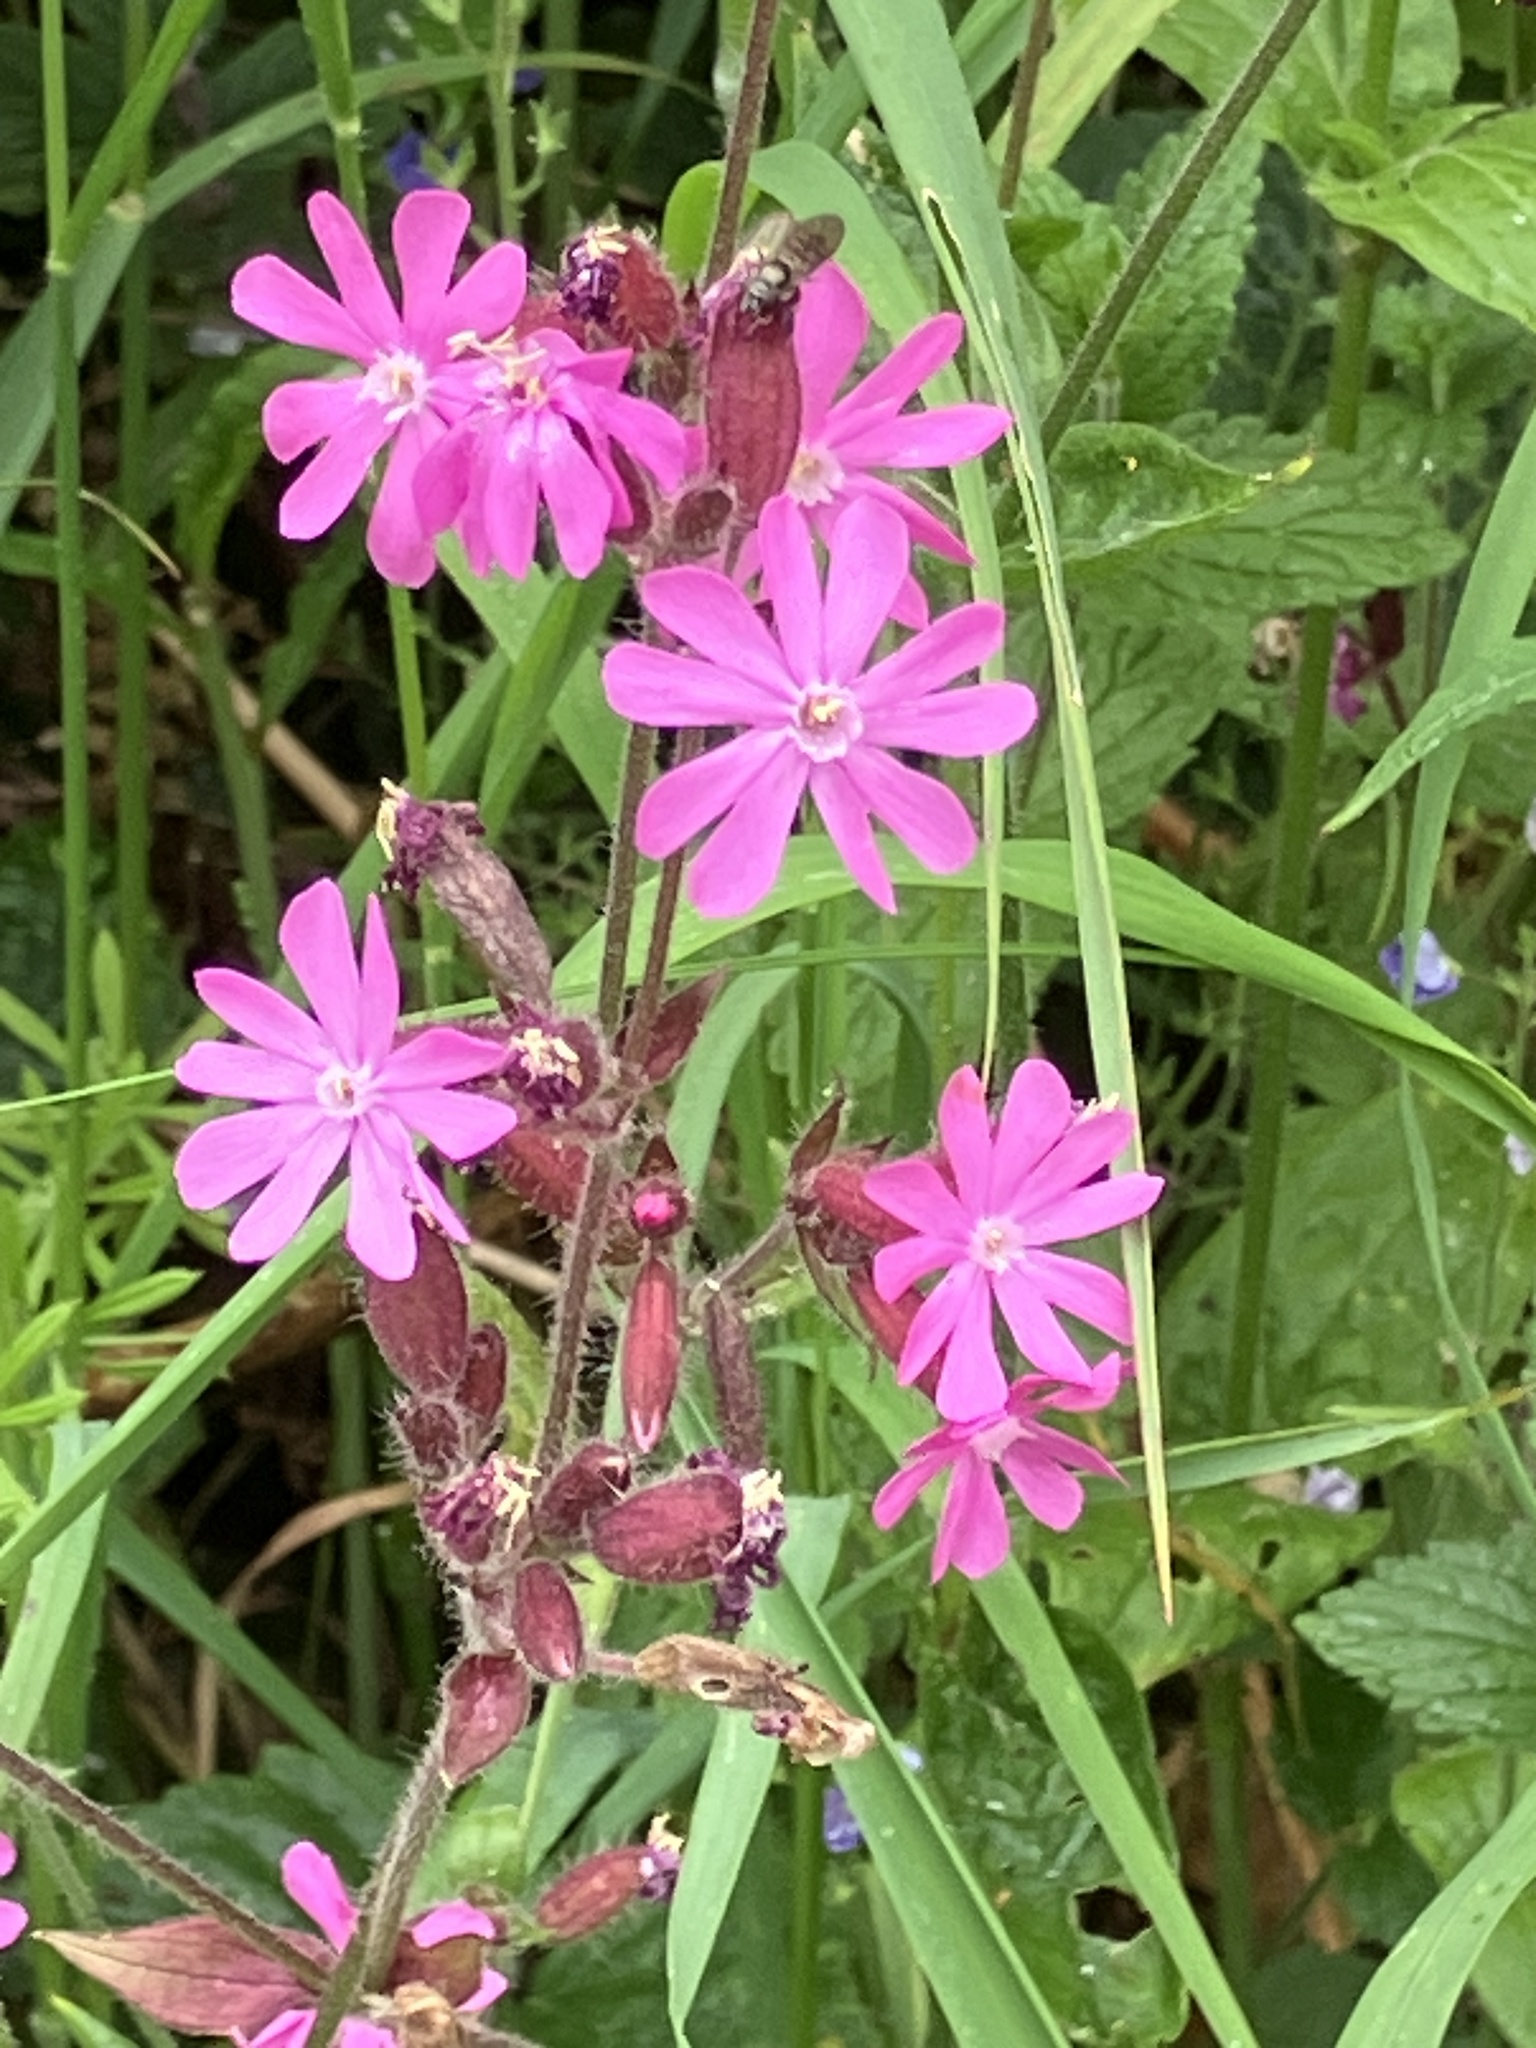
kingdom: Plantae
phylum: Tracheophyta
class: Magnoliopsida
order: Caryophyllales
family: Caryophyllaceae
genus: Silene
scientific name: Silene dioica
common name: Red campion
